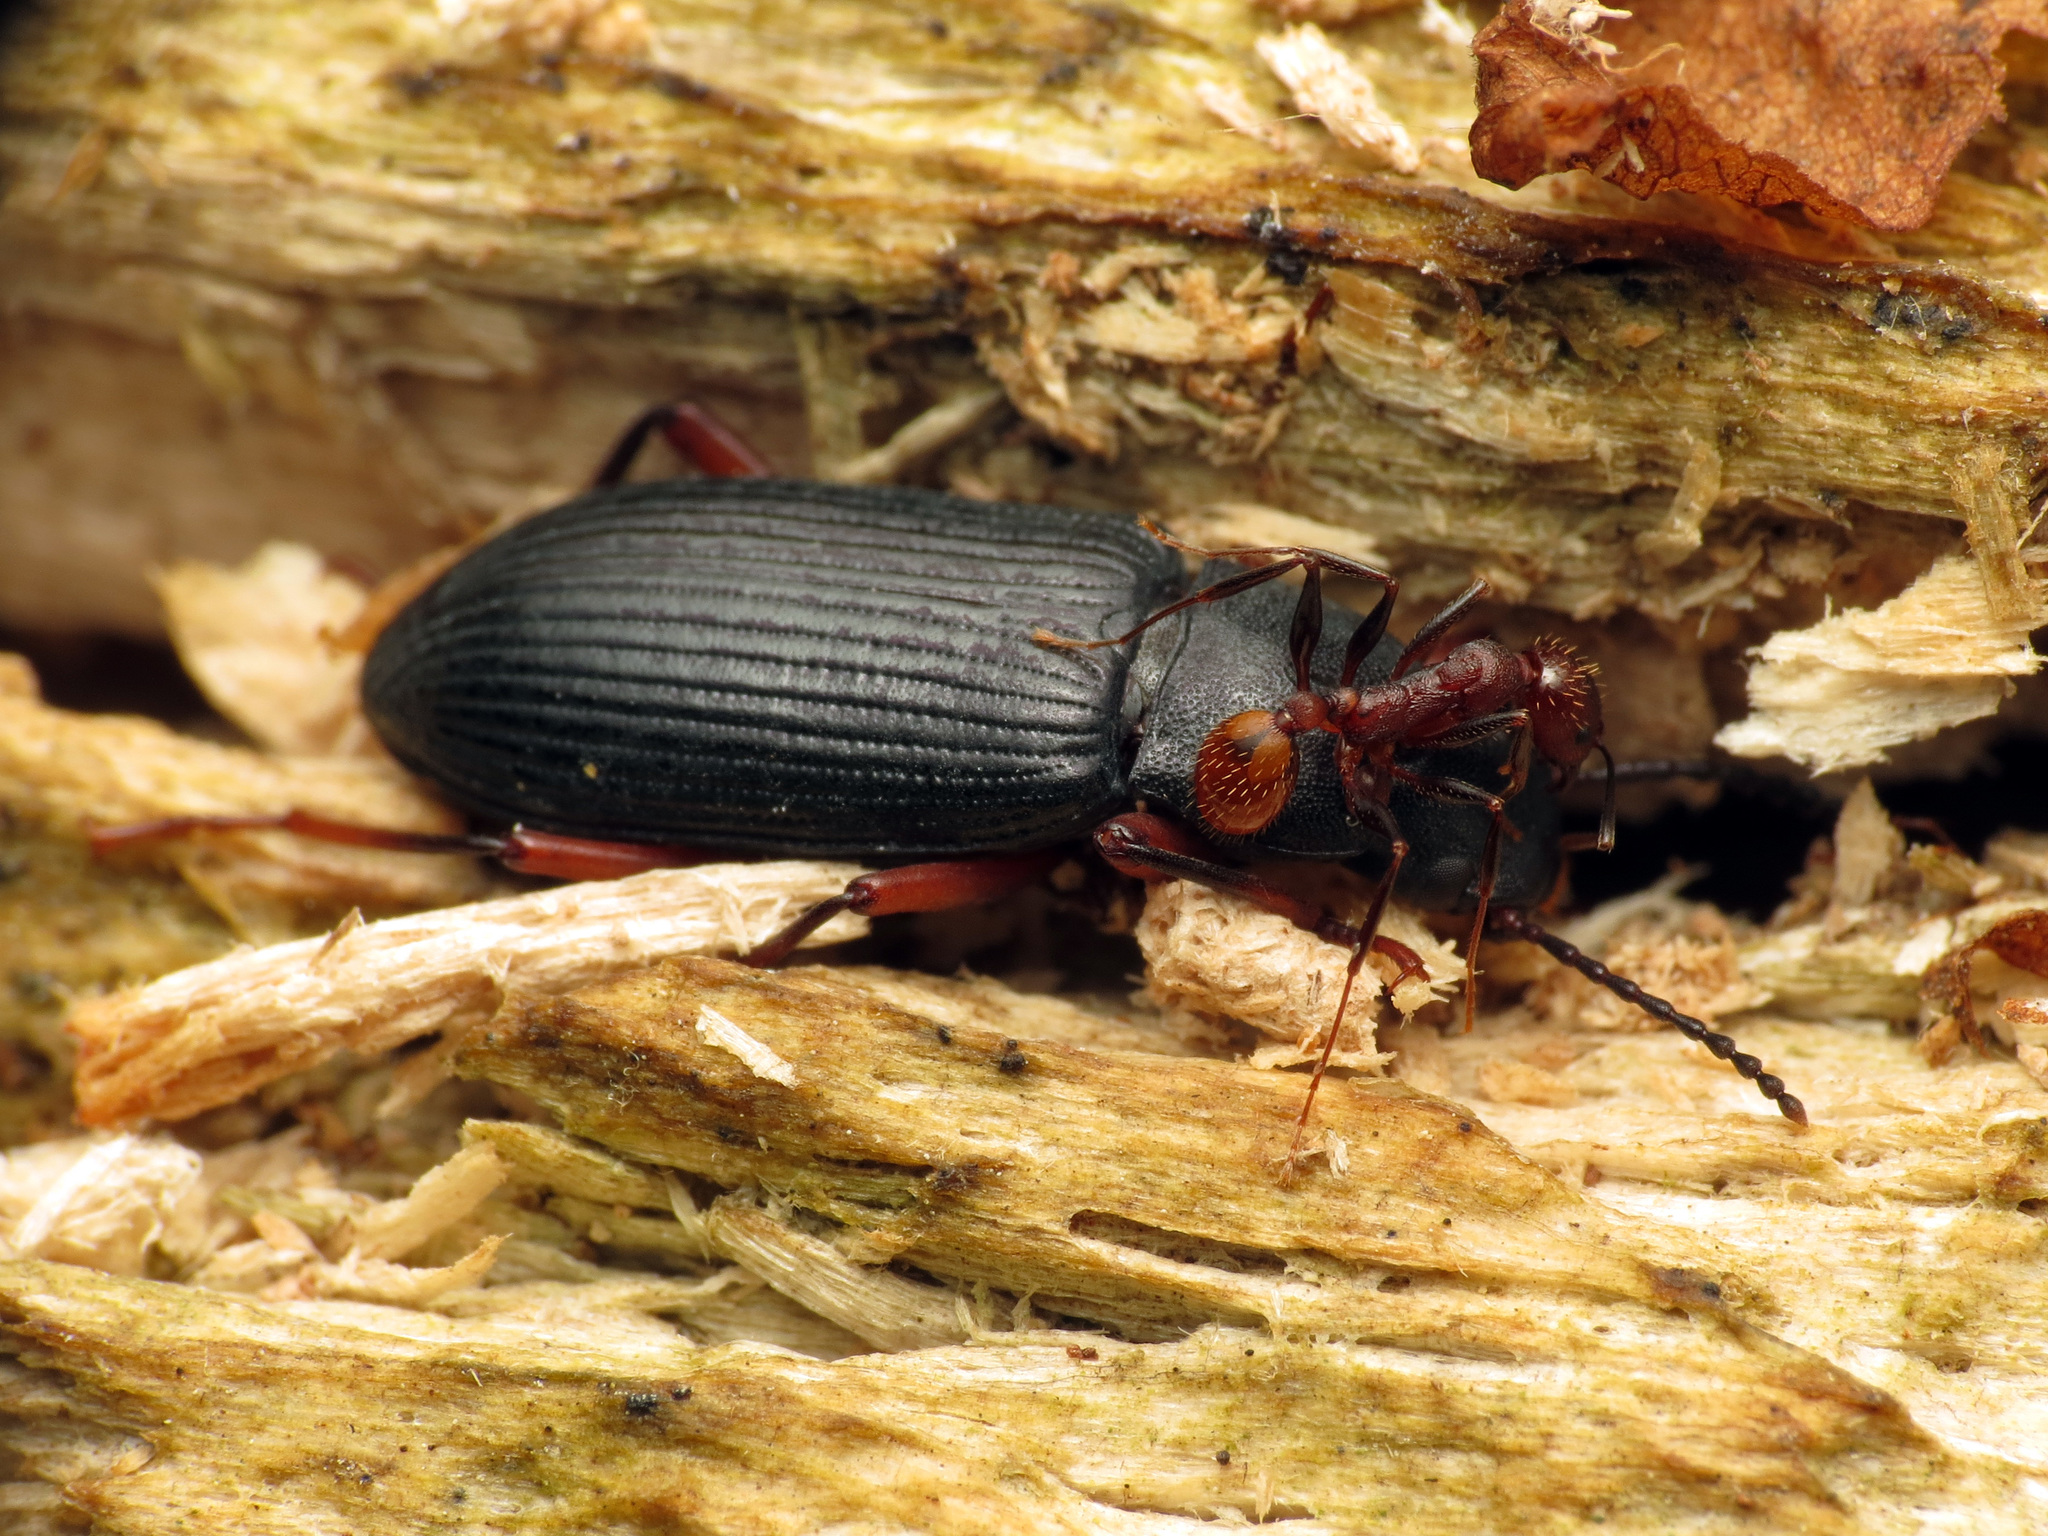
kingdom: Animalia
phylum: Arthropoda
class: Insecta
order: Hymenoptera
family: Formicidae
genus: Aphaenogaster
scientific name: Aphaenogaster lamellidens
